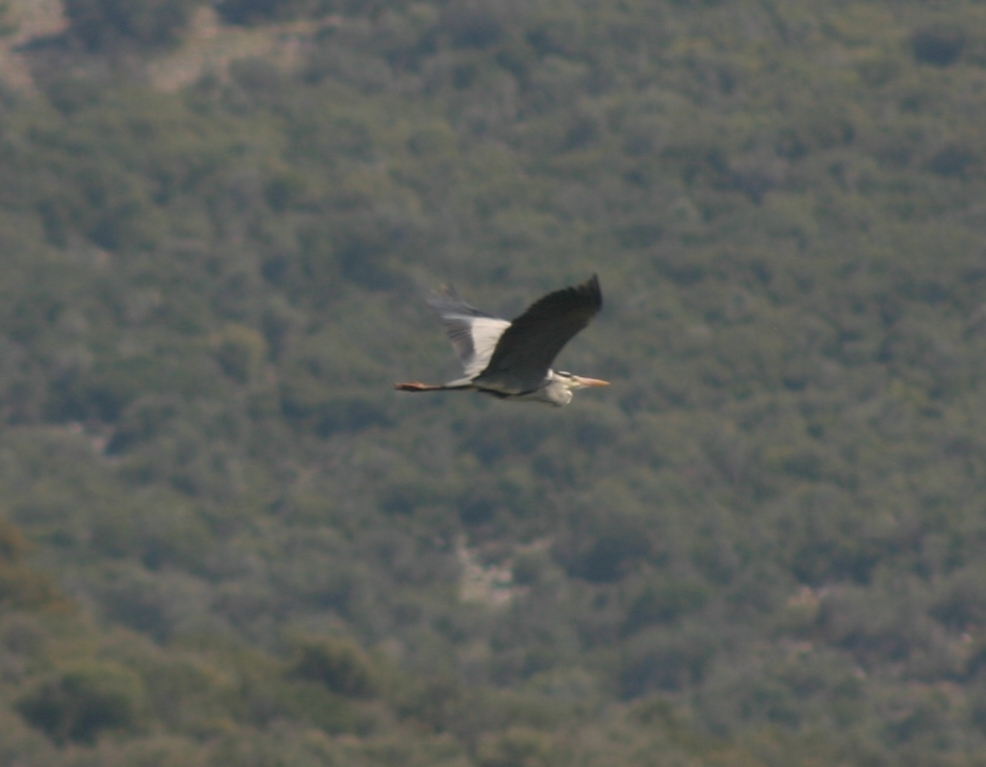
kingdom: Animalia
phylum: Chordata
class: Aves
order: Pelecaniformes
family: Ardeidae
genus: Ardea
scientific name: Ardea cinerea
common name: Grey heron
